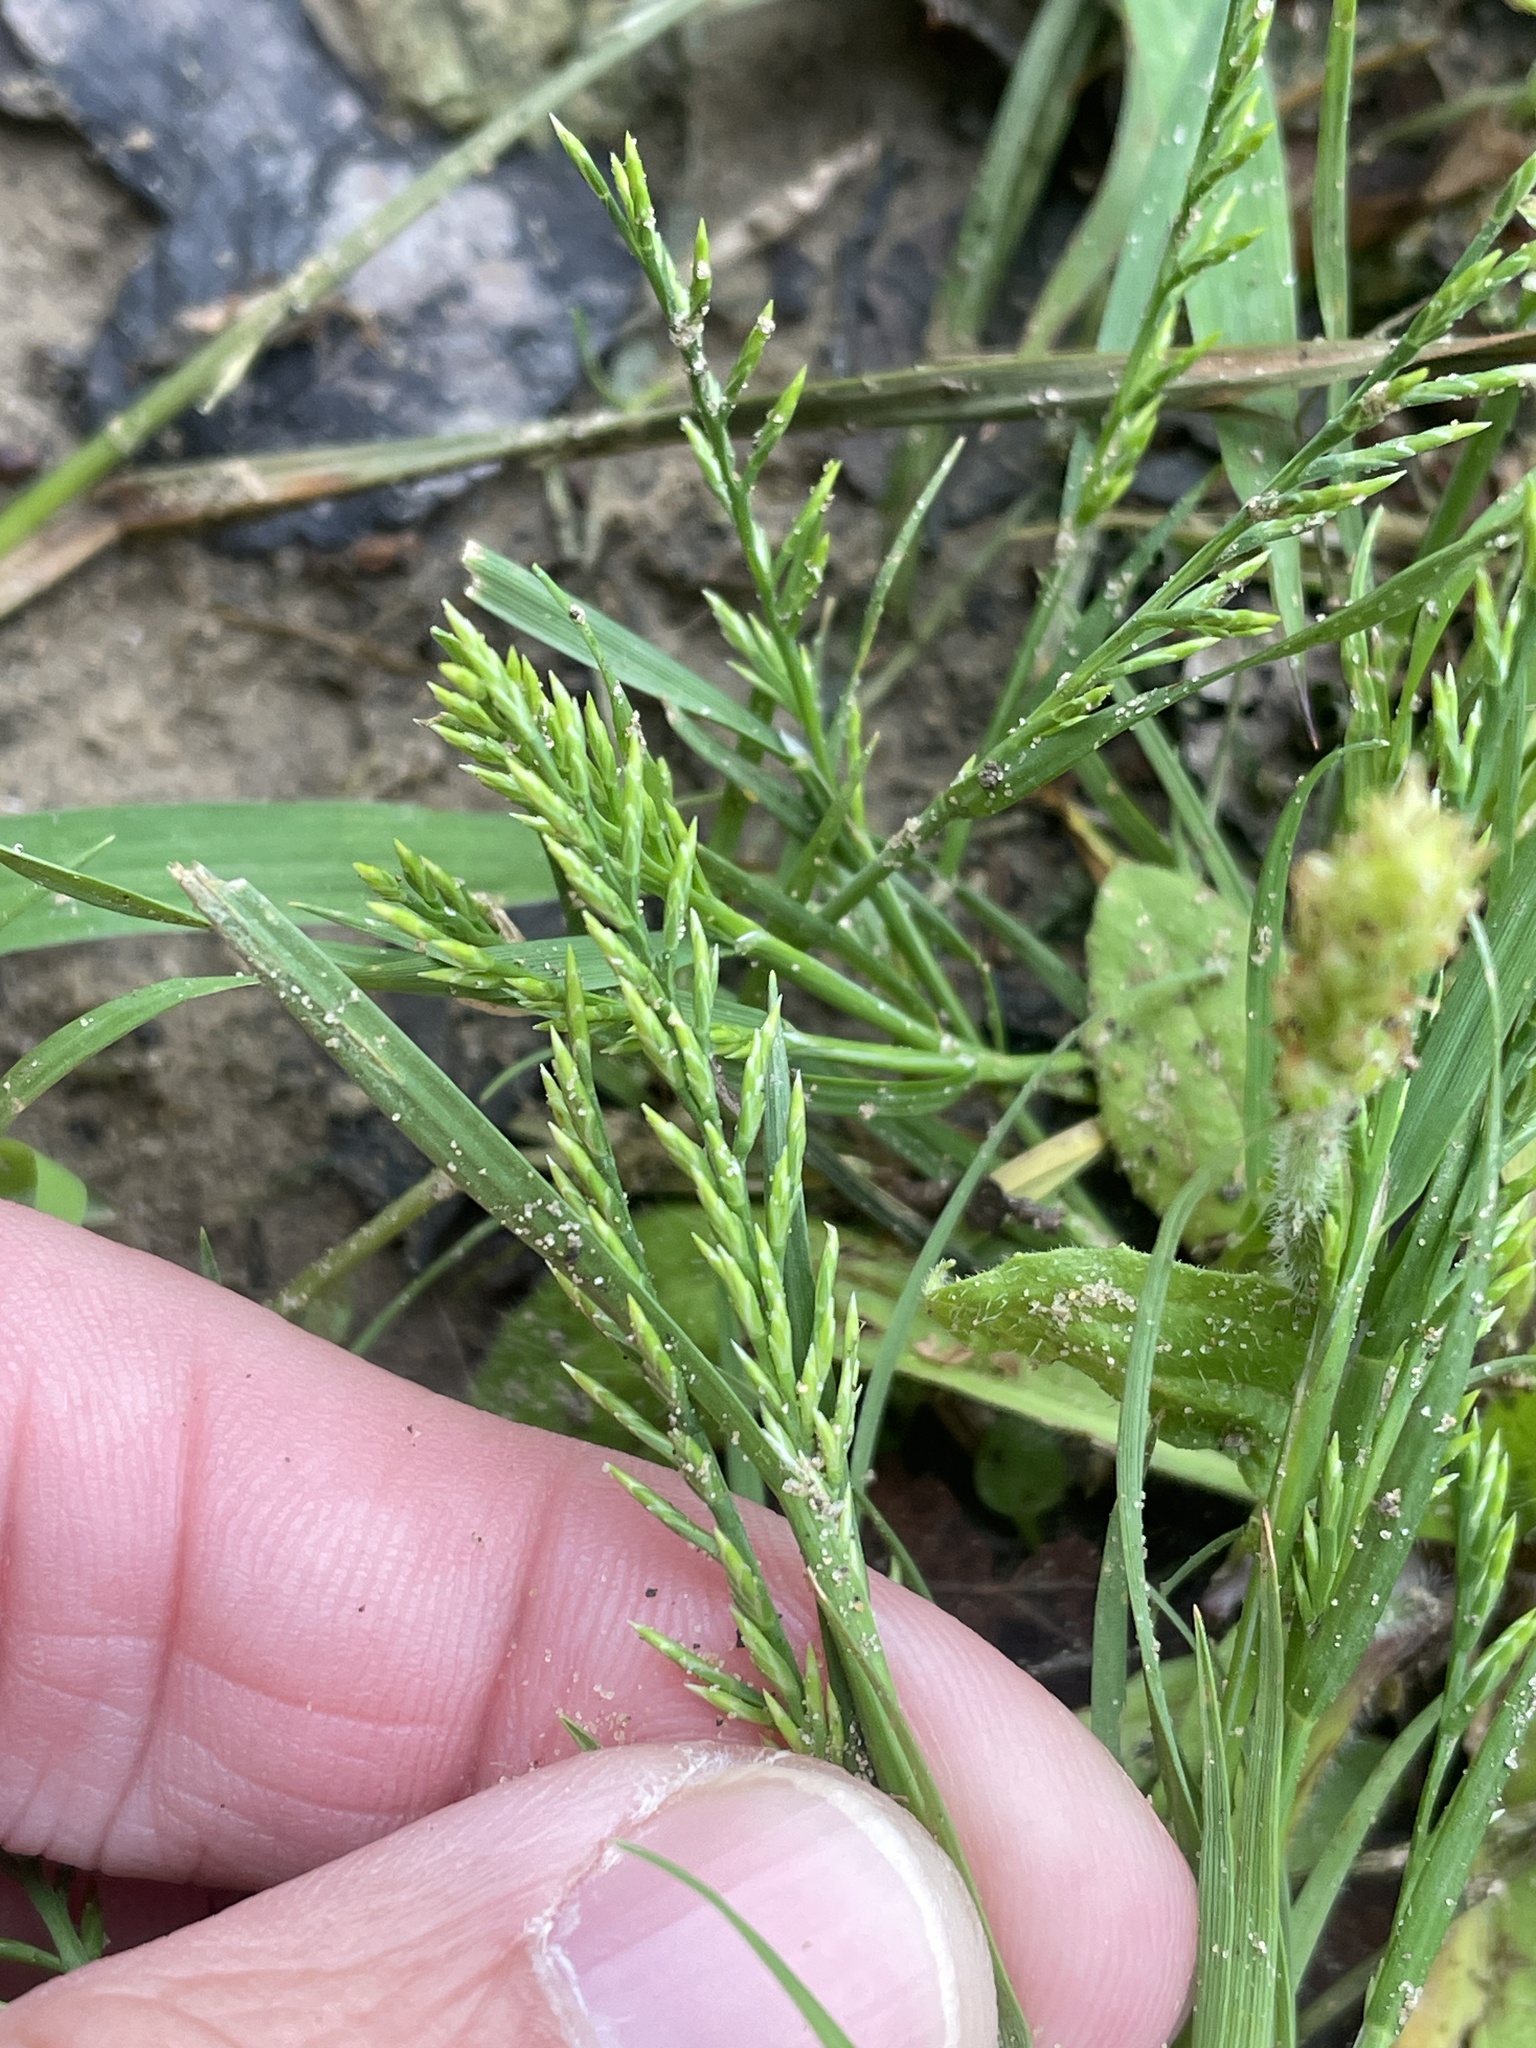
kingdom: Plantae
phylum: Tracheophyta
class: Liliopsida
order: Poales
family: Poaceae
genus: Catapodium
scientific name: Catapodium rigidum
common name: Fern-grass
